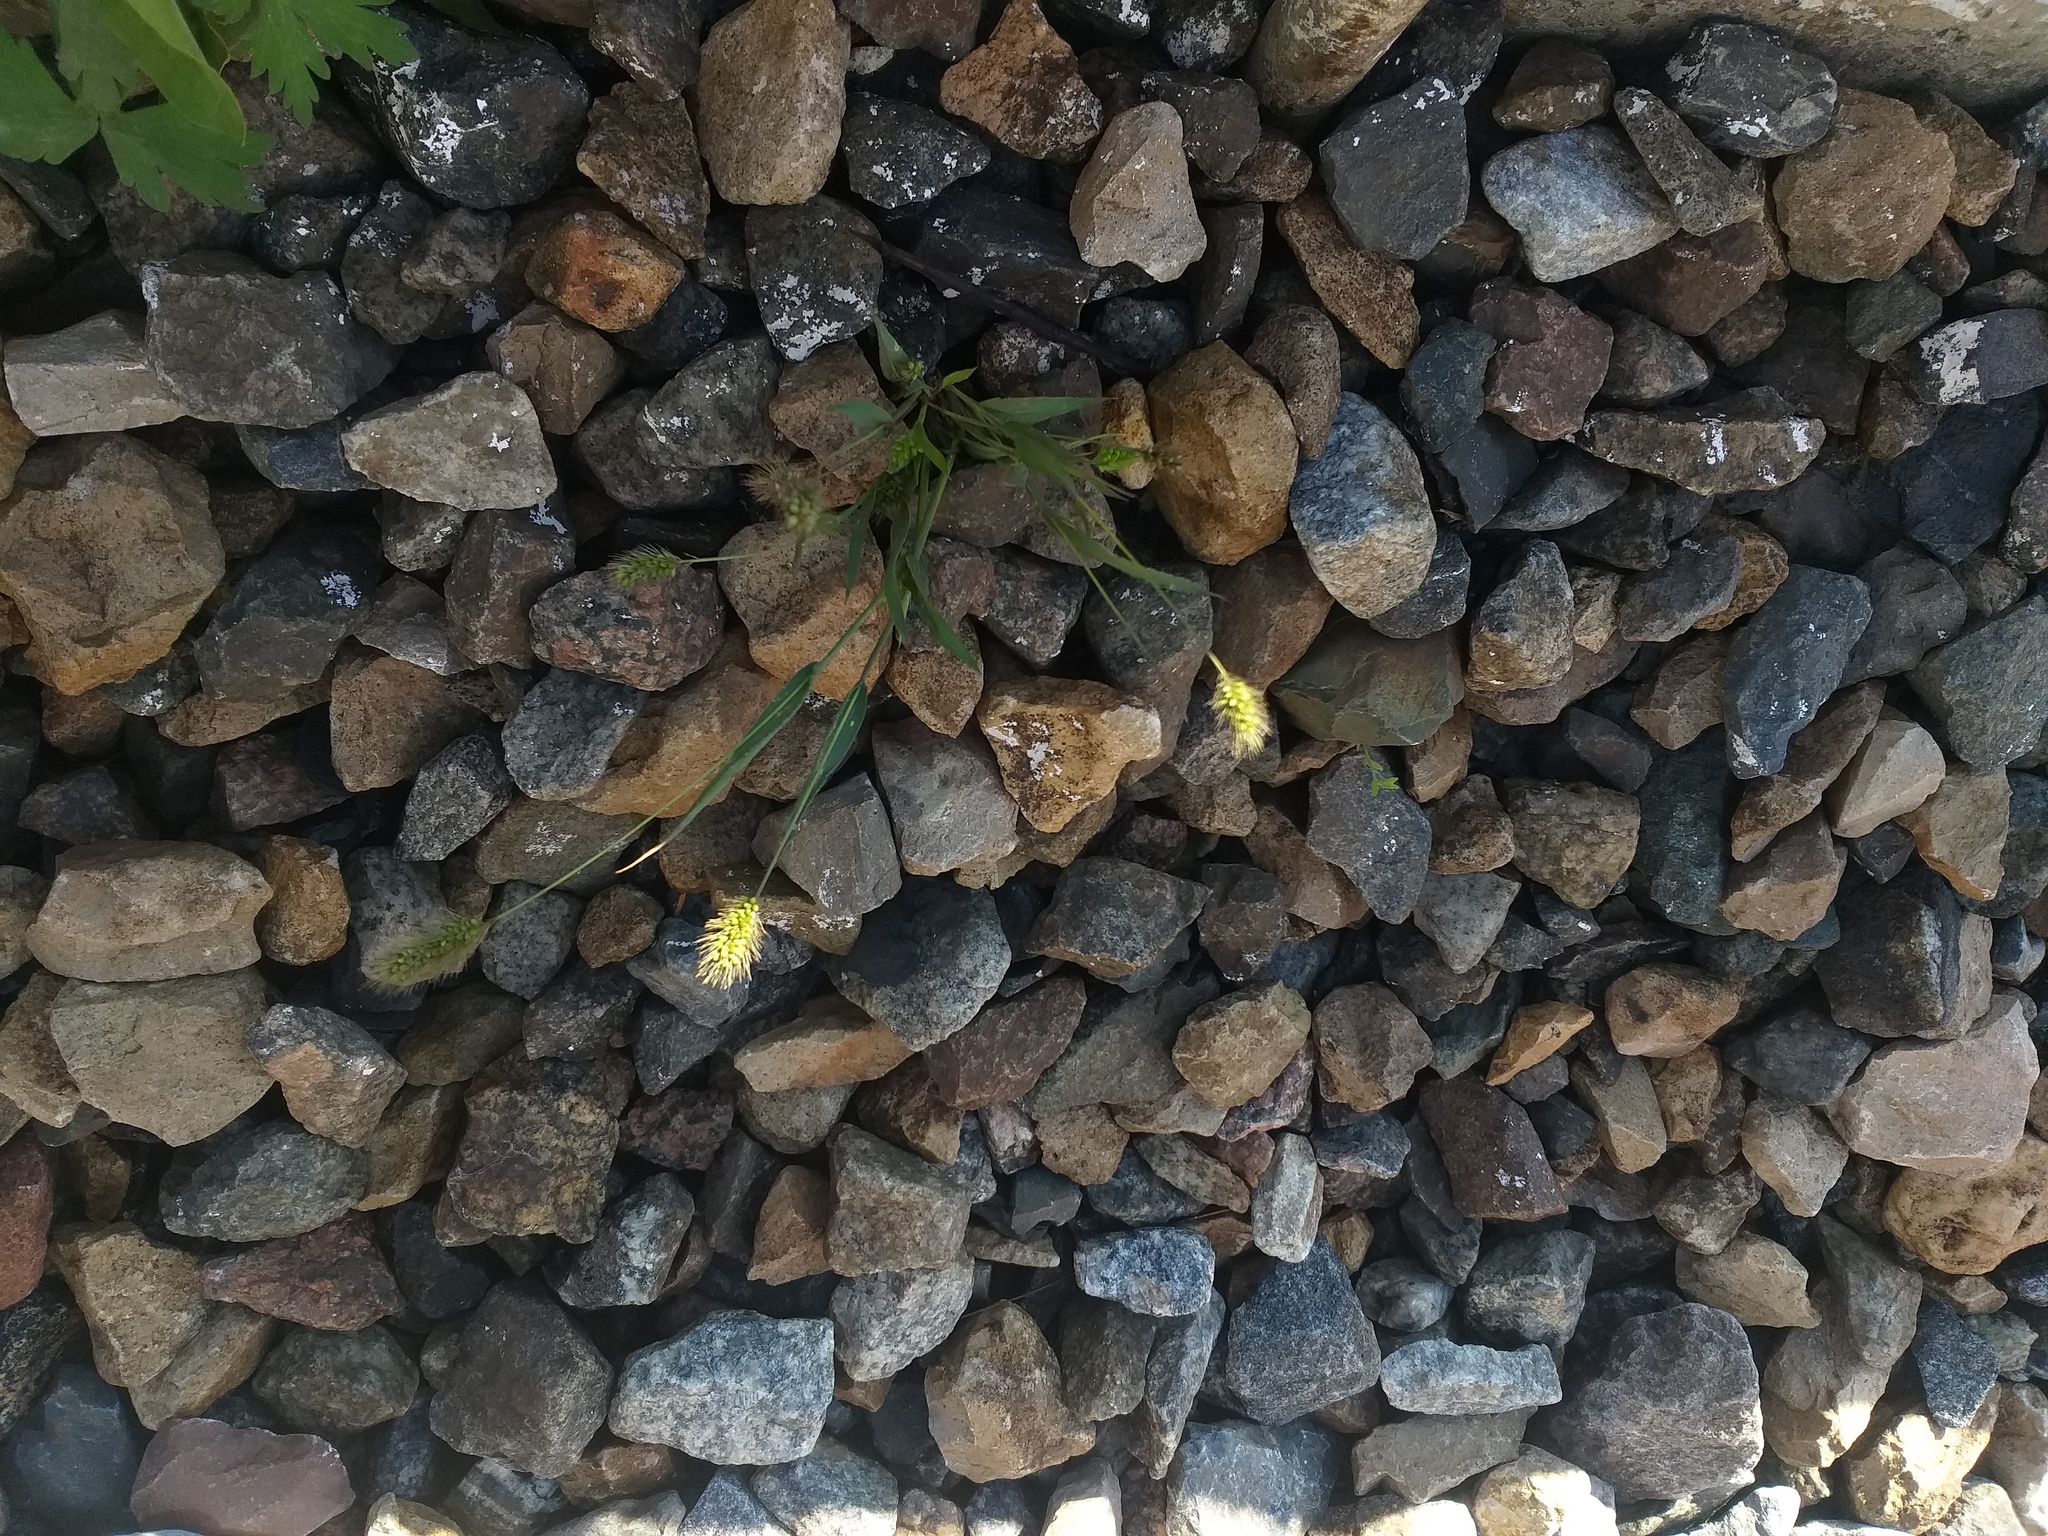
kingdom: Plantae
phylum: Tracheophyta
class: Liliopsida
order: Poales
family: Poaceae
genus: Setaria
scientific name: Setaria viridis
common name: Green bristlegrass
